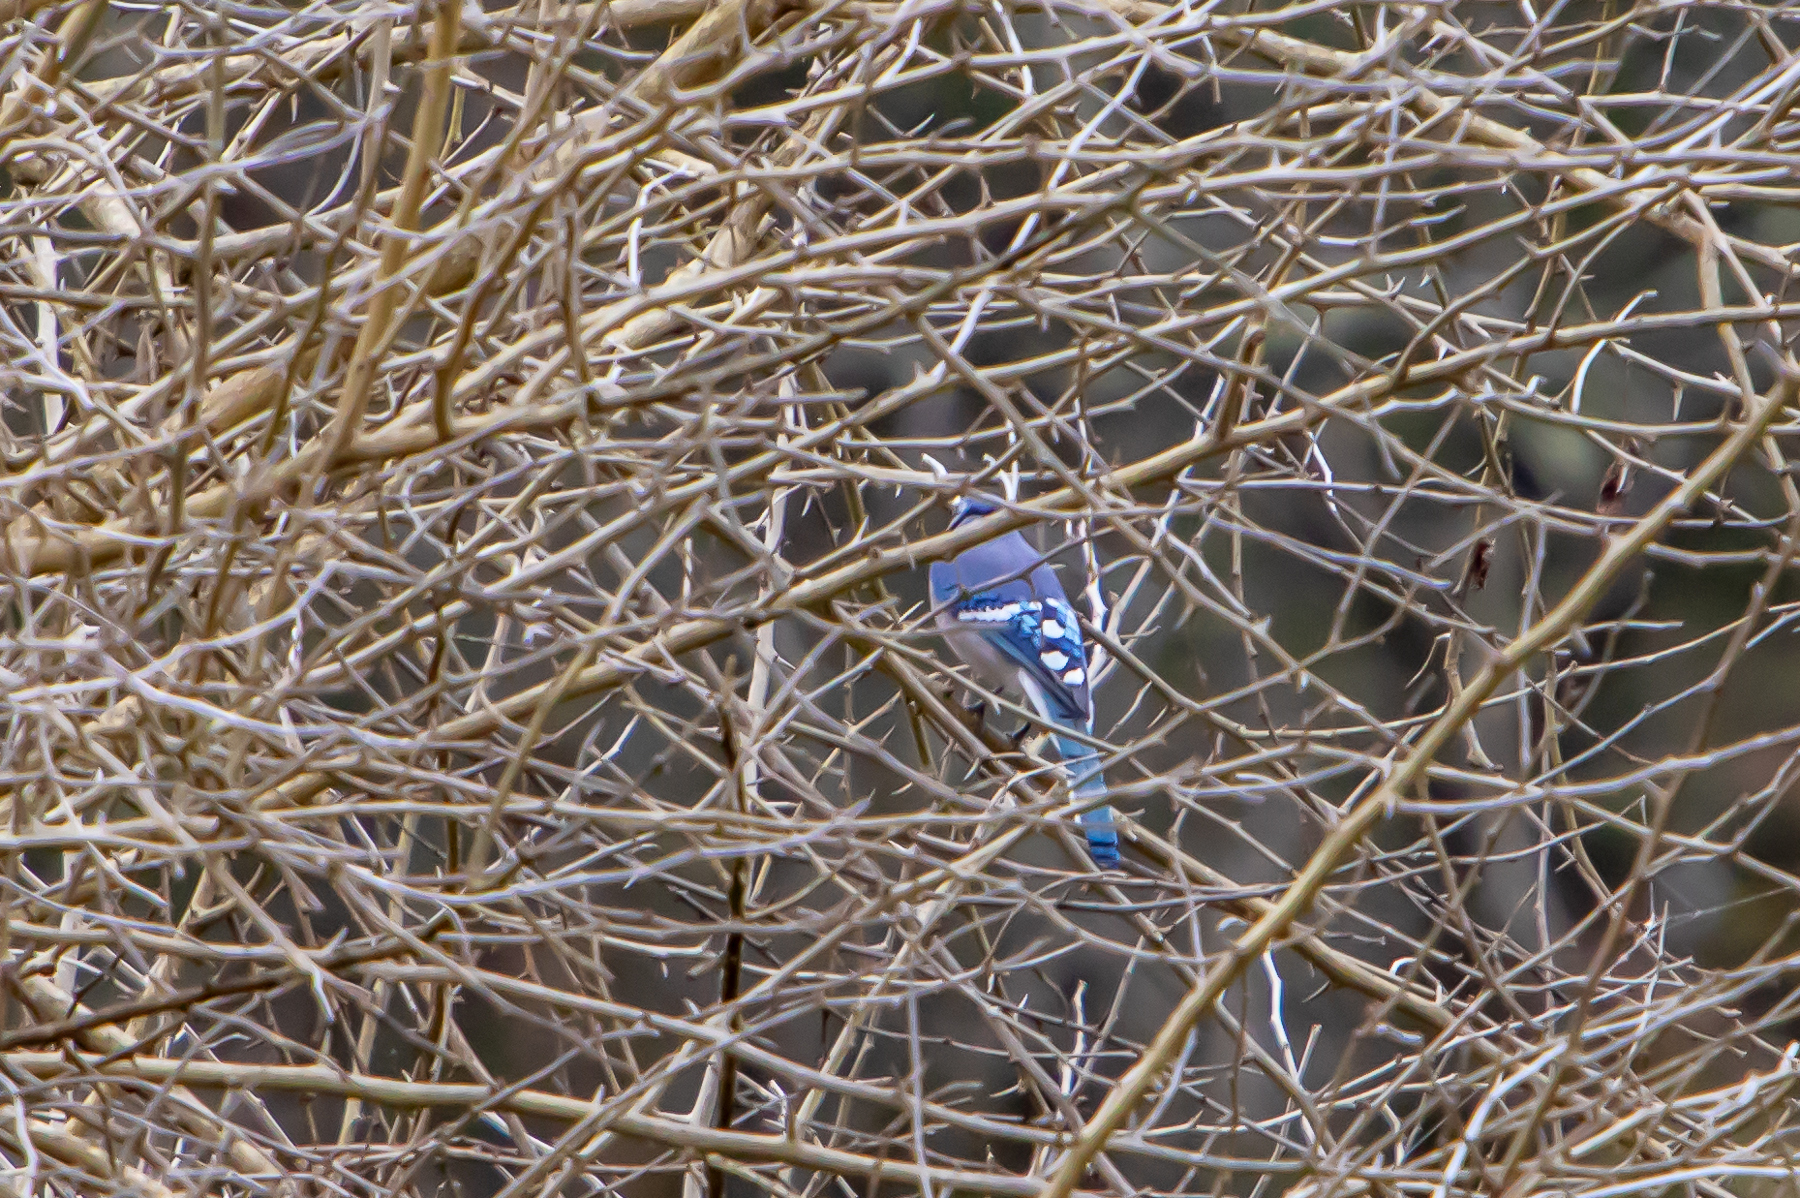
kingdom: Animalia
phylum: Chordata
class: Aves
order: Passeriformes
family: Corvidae
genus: Cyanocitta
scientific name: Cyanocitta cristata
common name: Blue jay
